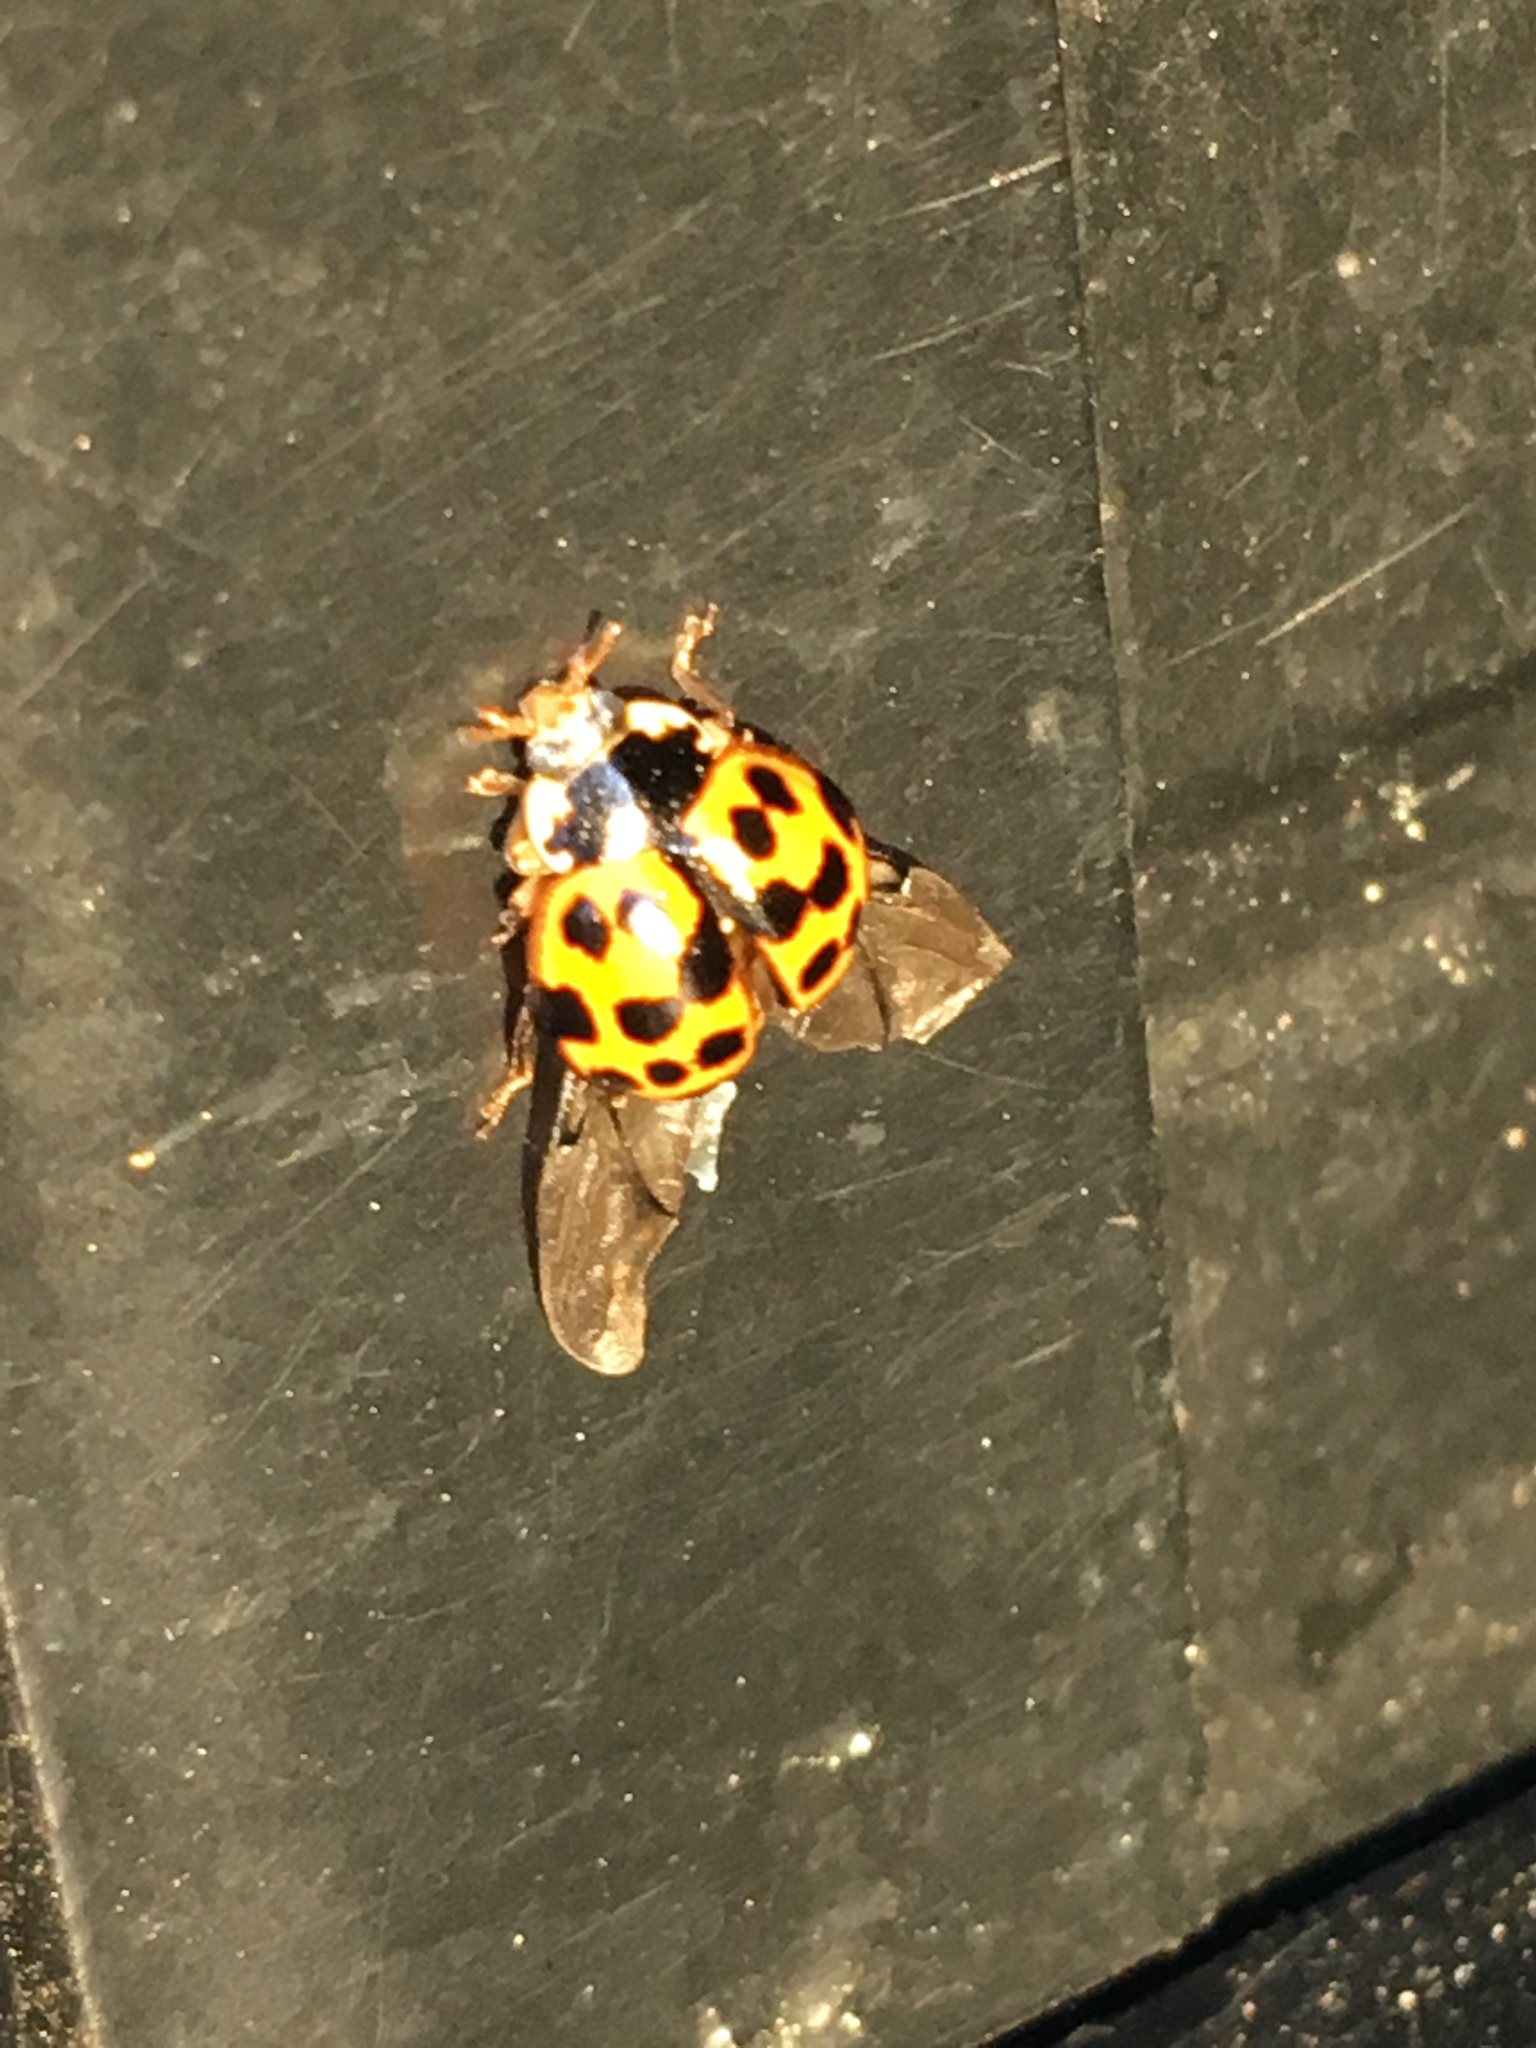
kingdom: Animalia
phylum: Arthropoda
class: Insecta
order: Coleoptera
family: Coccinellidae
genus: Harmonia
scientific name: Harmonia axyridis
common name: Harlequin ladybird
